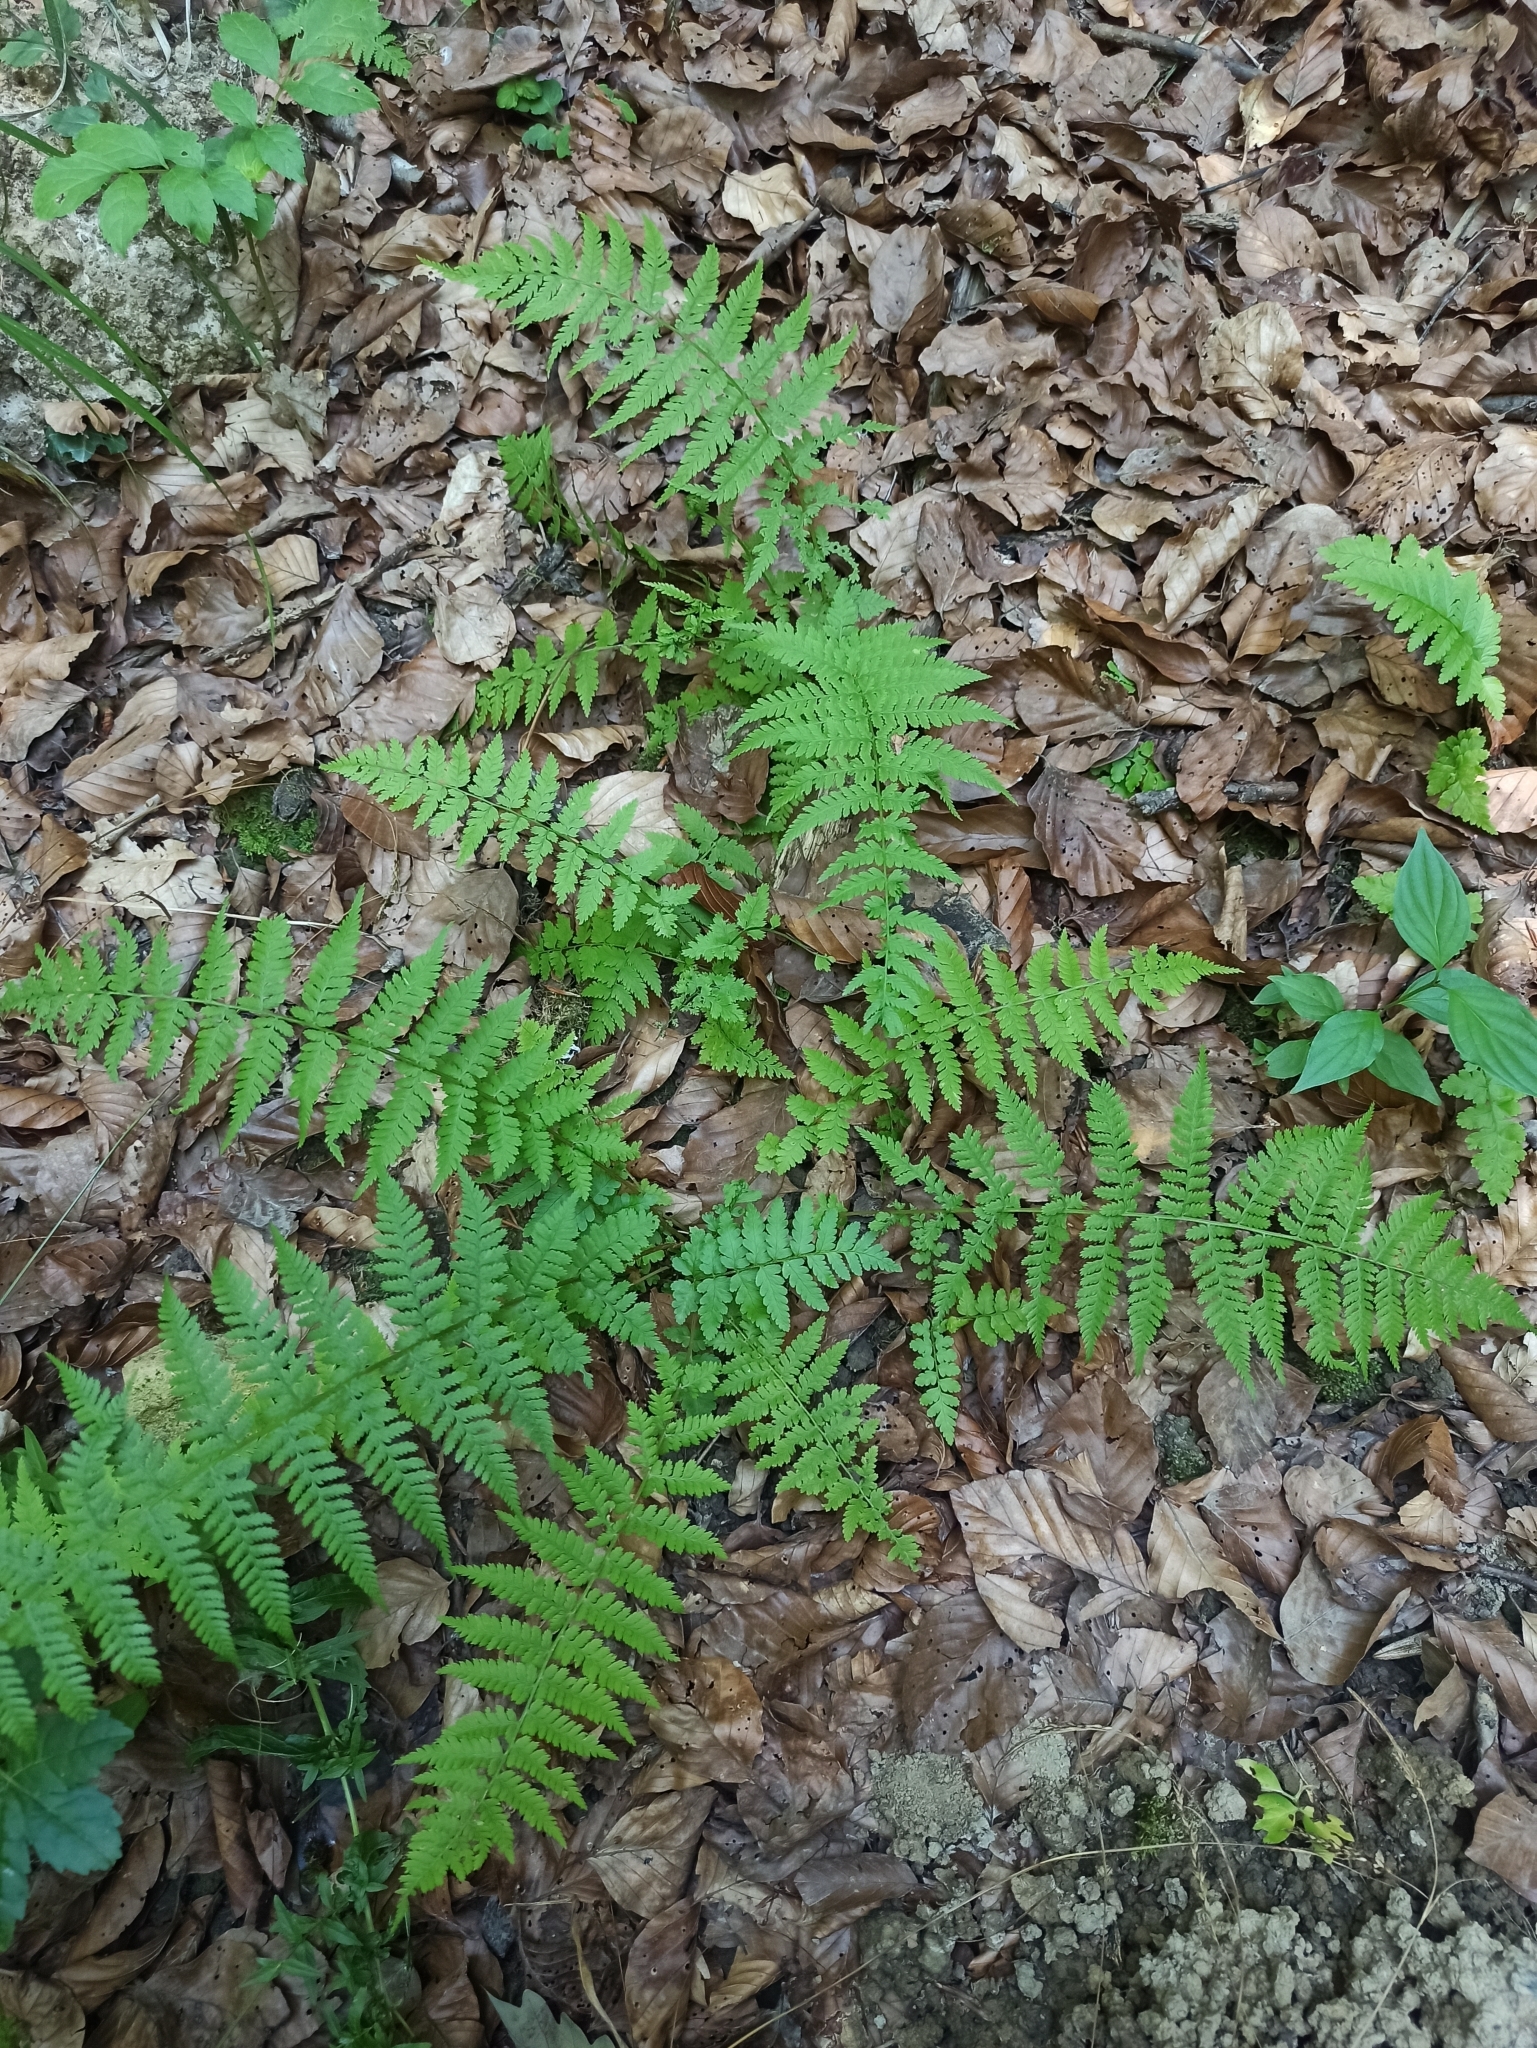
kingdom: Plantae
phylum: Tracheophyta
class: Polypodiopsida
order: Polypodiales
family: Athyriaceae
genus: Athyrium
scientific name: Athyrium filix-femina
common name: Lady fern
